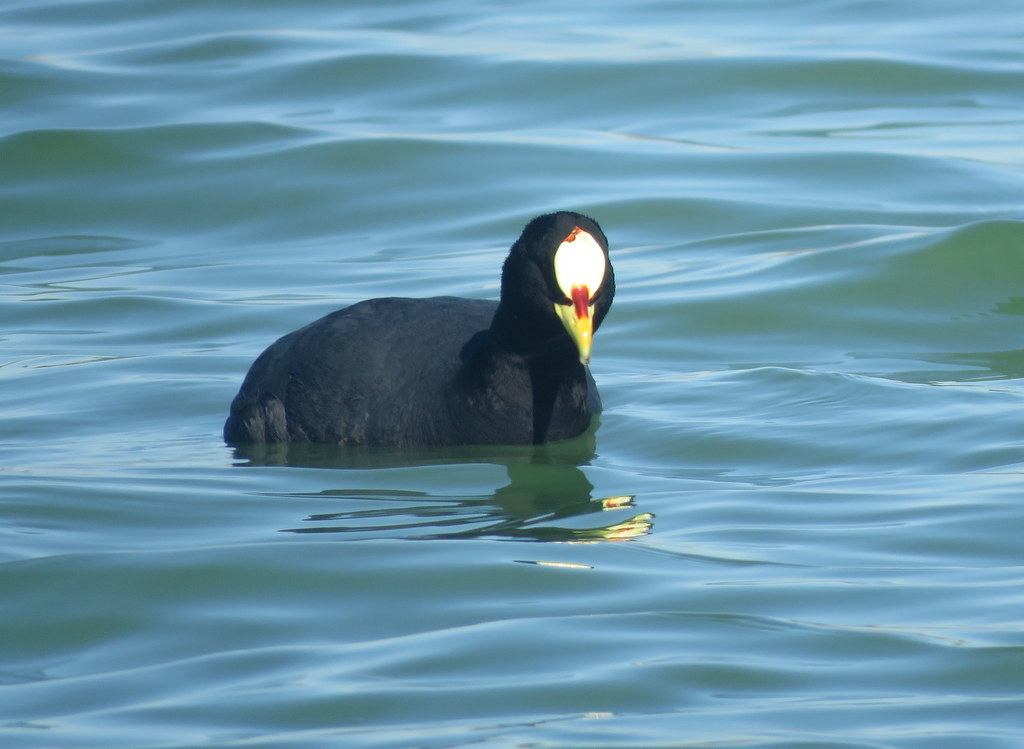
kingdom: Animalia
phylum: Chordata
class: Aves
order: Gruiformes
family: Rallidae
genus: Fulica
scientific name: Fulica armillata
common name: Red-gartered coot
